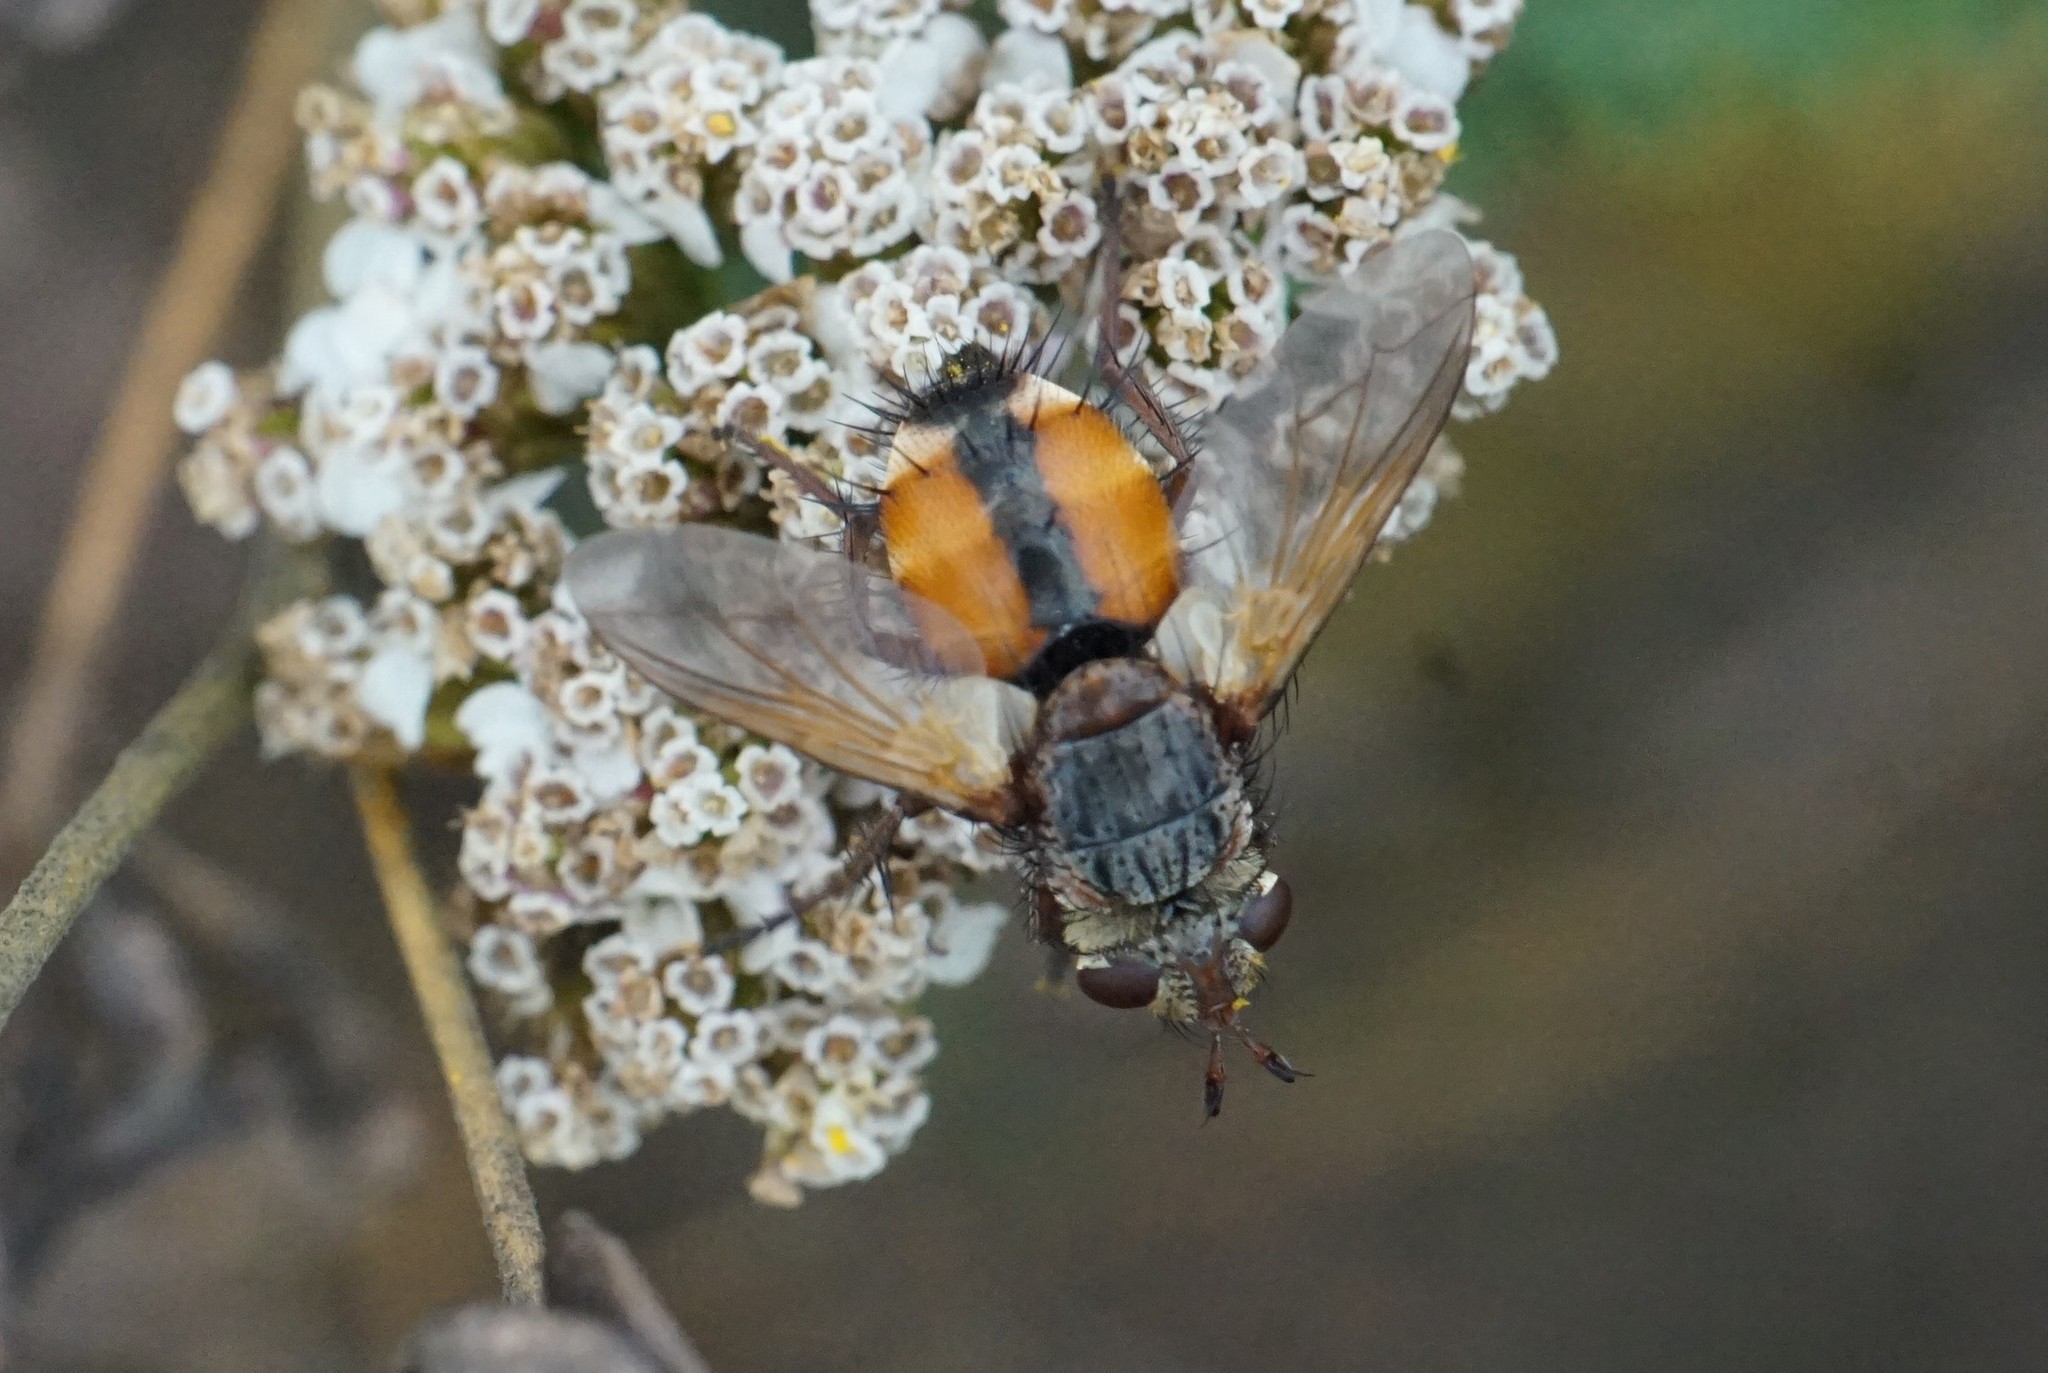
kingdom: Animalia
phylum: Arthropoda
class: Insecta
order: Diptera
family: Tachinidae
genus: Tachina
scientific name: Tachina fera
